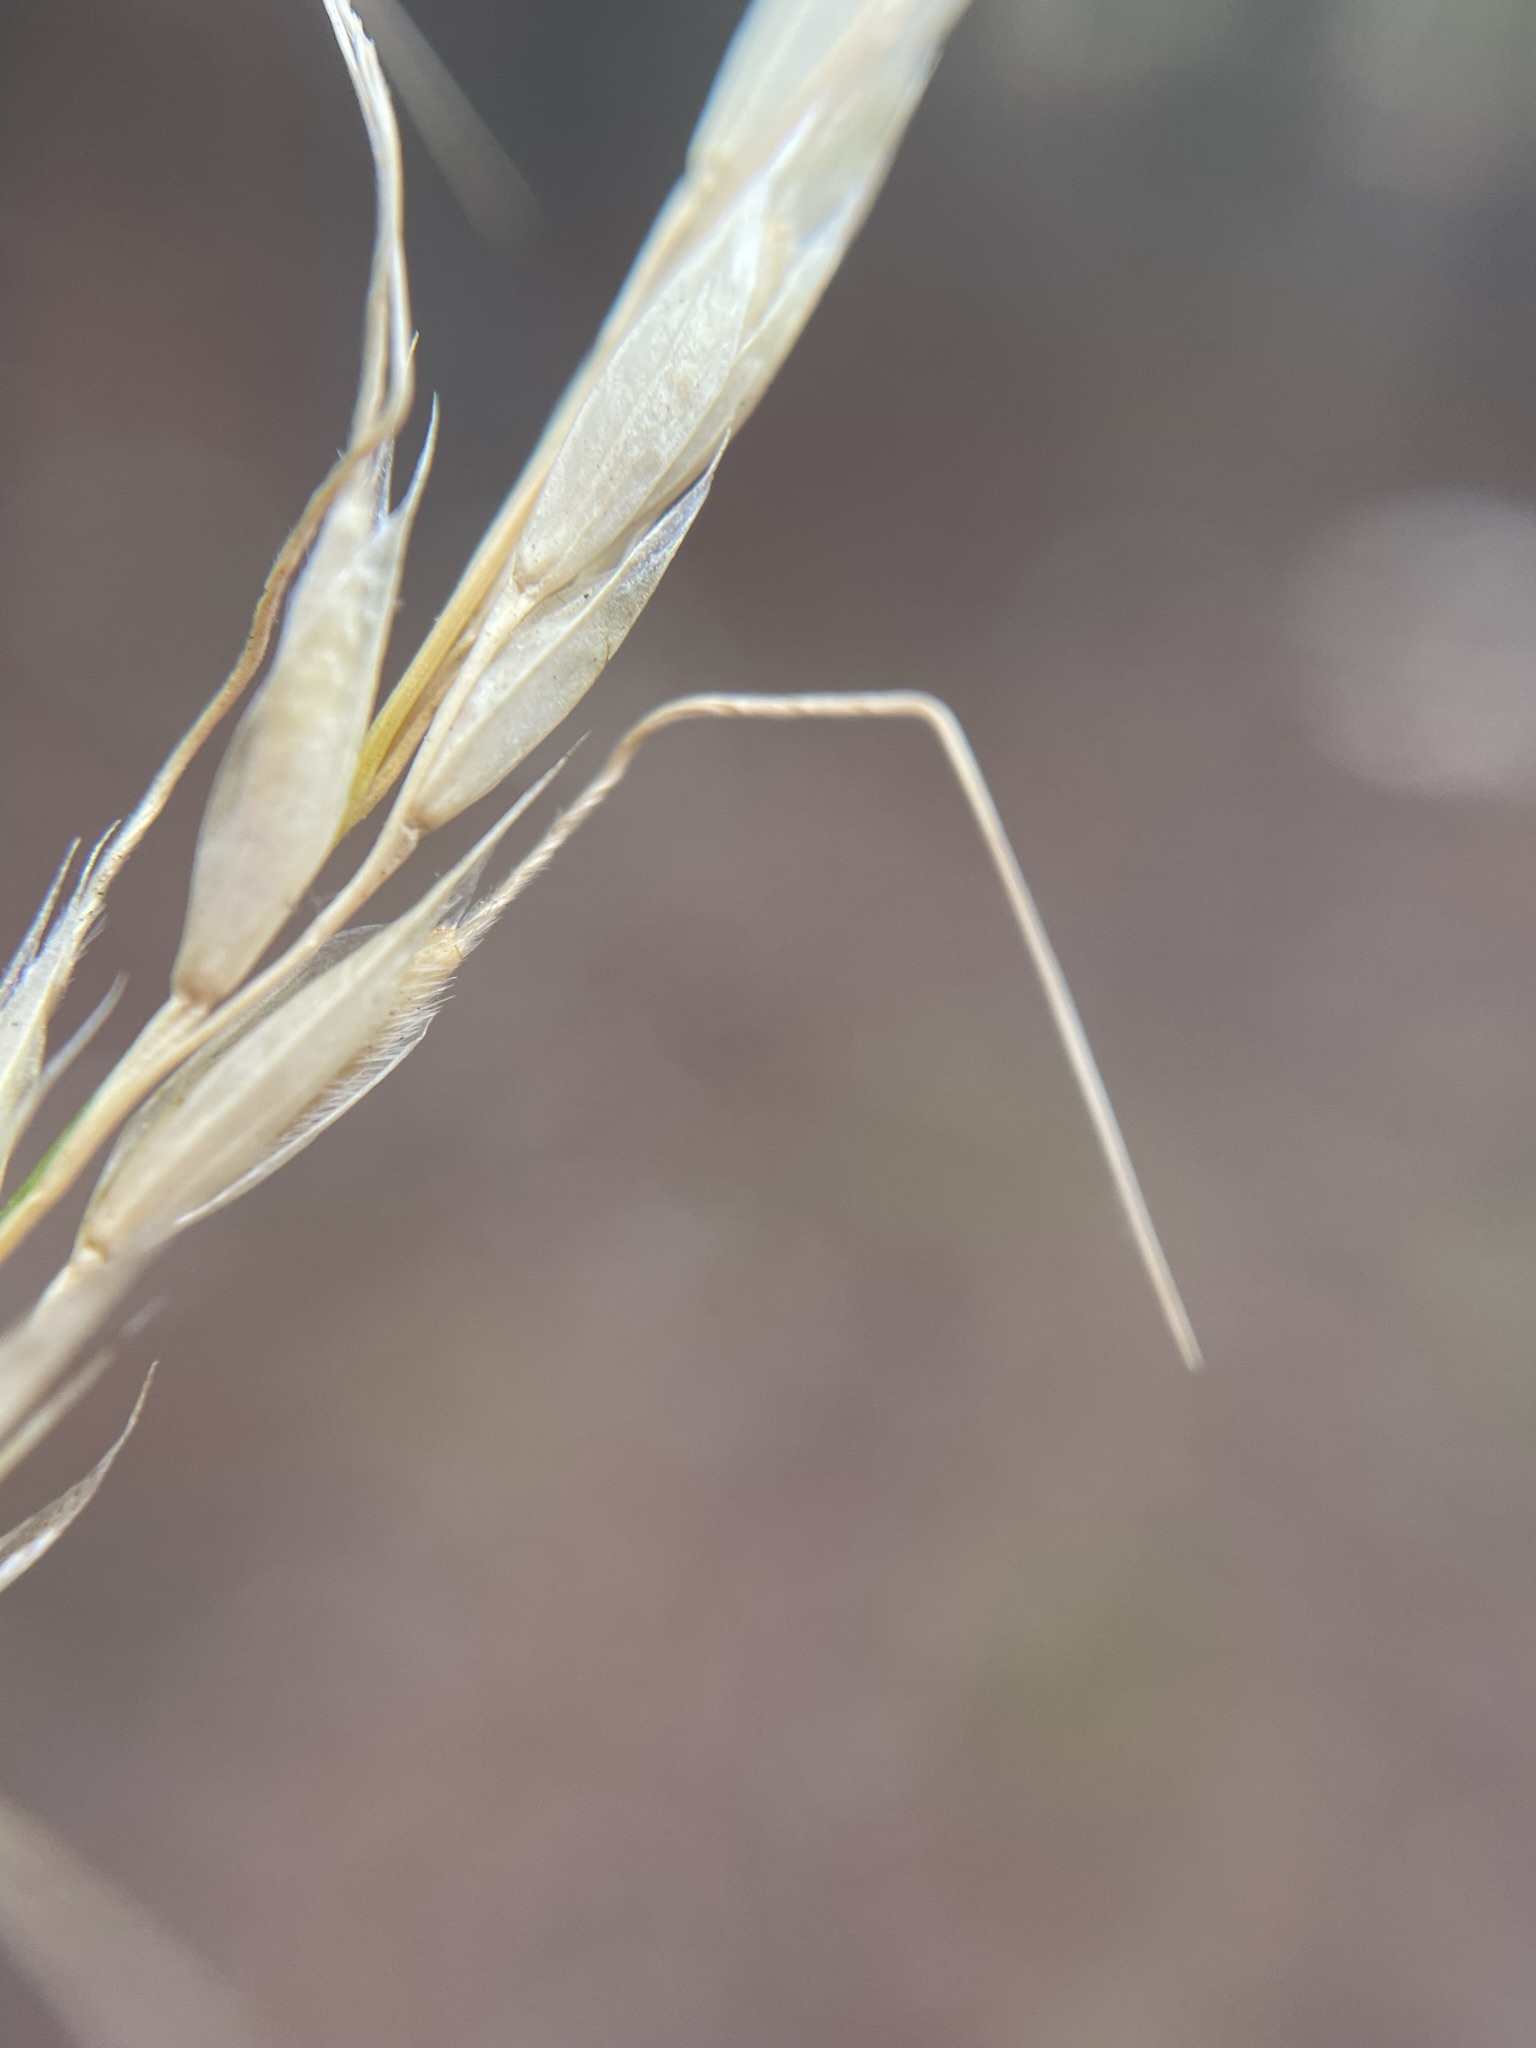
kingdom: Plantae
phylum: Tracheophyta
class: Liliopsida
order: Poales
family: Poaceae
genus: Eriocoma
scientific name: Eriocoma lemmonii
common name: Lemmon's needlegrass
